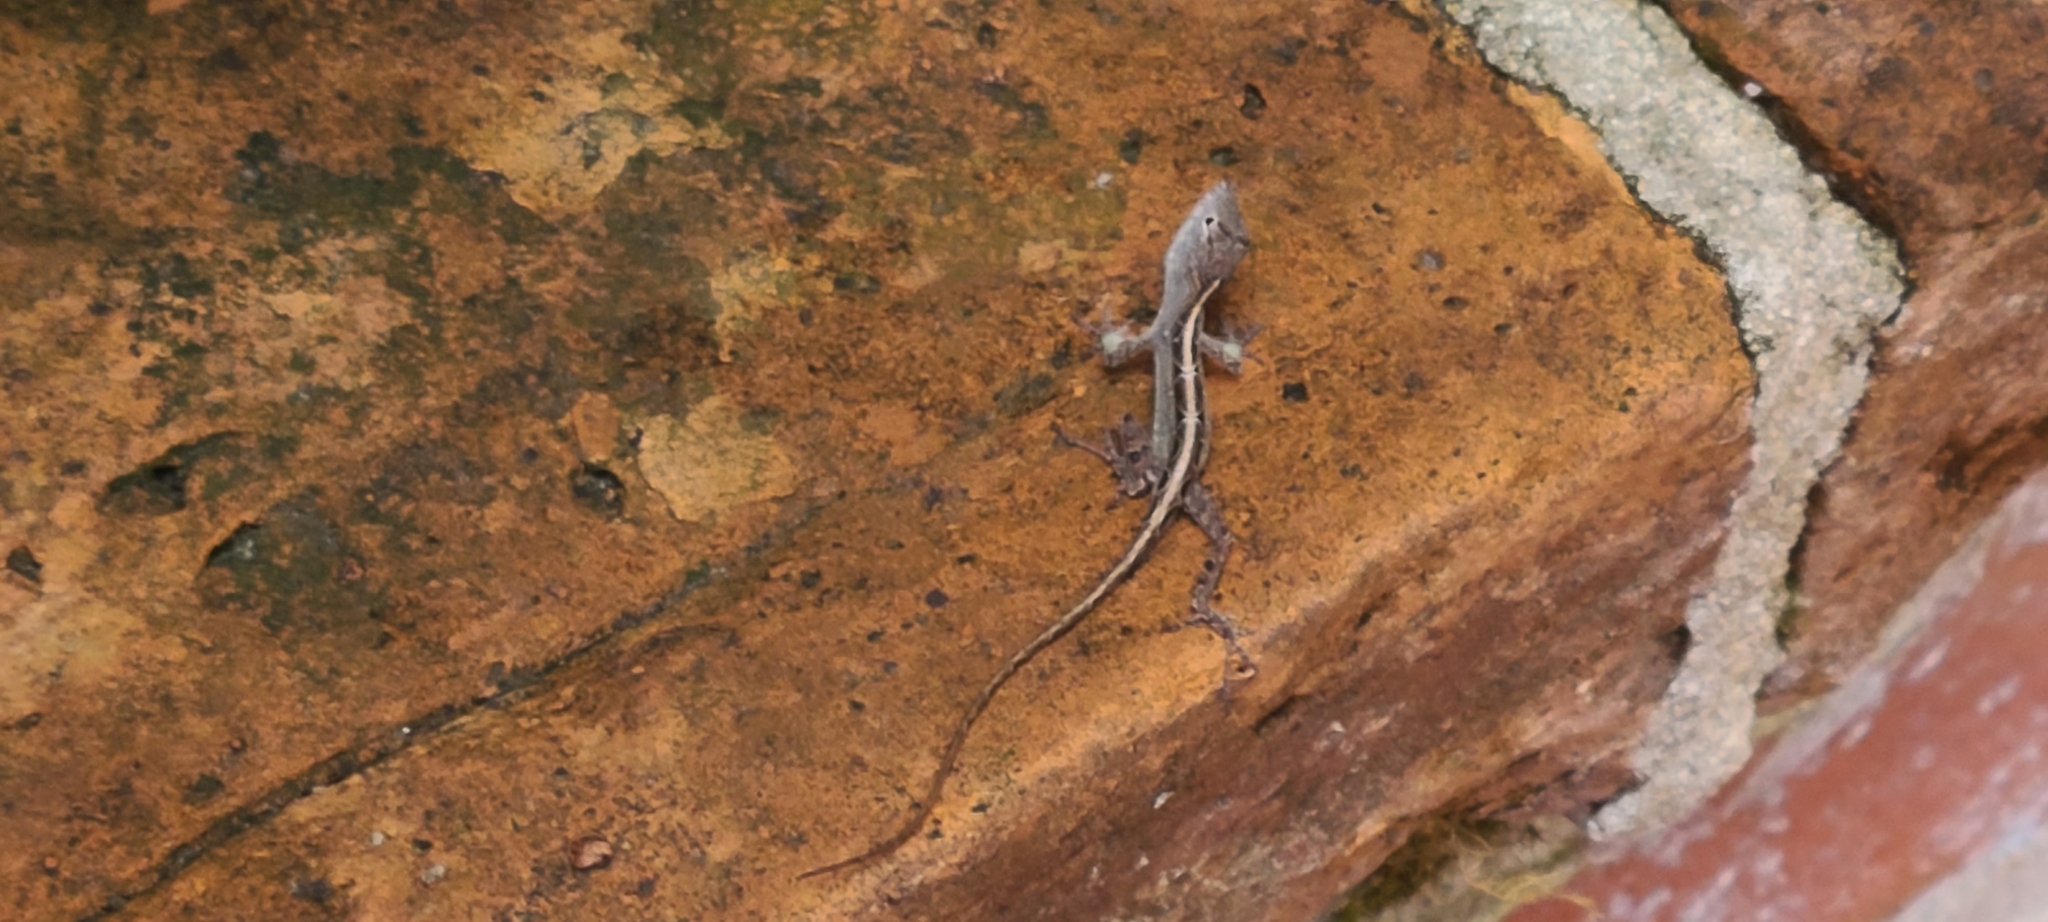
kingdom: Animalia
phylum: Chordata
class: Squamata
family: Dactyloidae
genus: Anolis
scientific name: Anolis sagrei
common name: Brown anole
